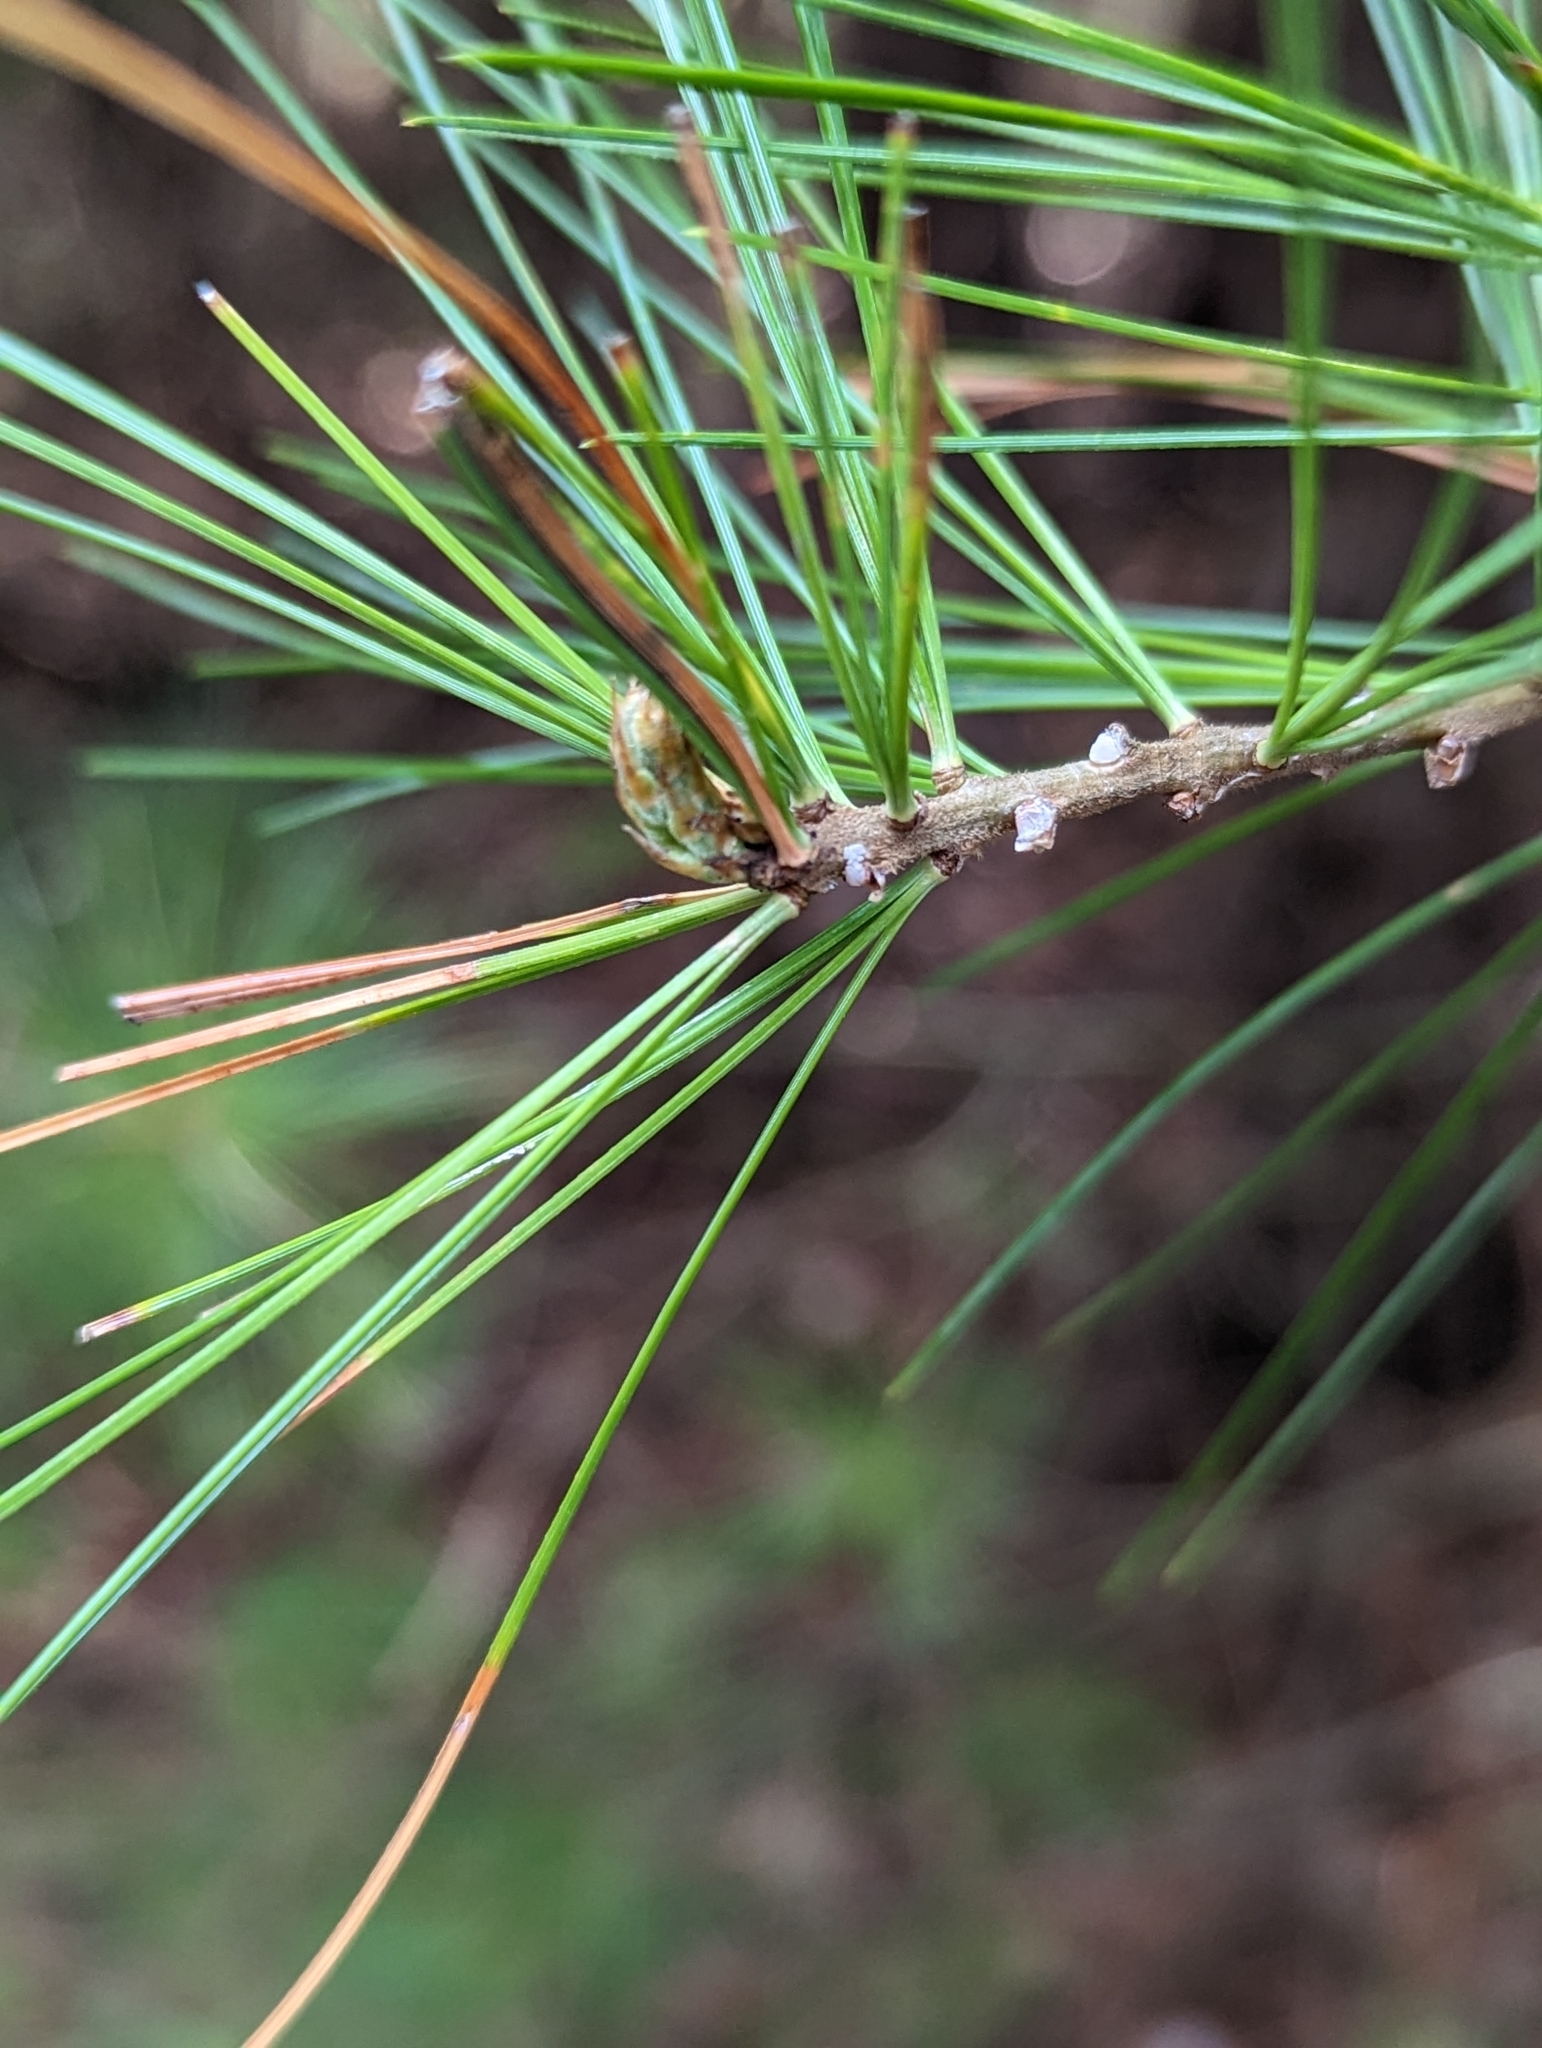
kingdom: Plantae
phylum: Tracheophyta
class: Pinopsida
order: Pinales
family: Pinaceae
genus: Pinus
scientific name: Pinus strobus
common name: Weymouth pine
